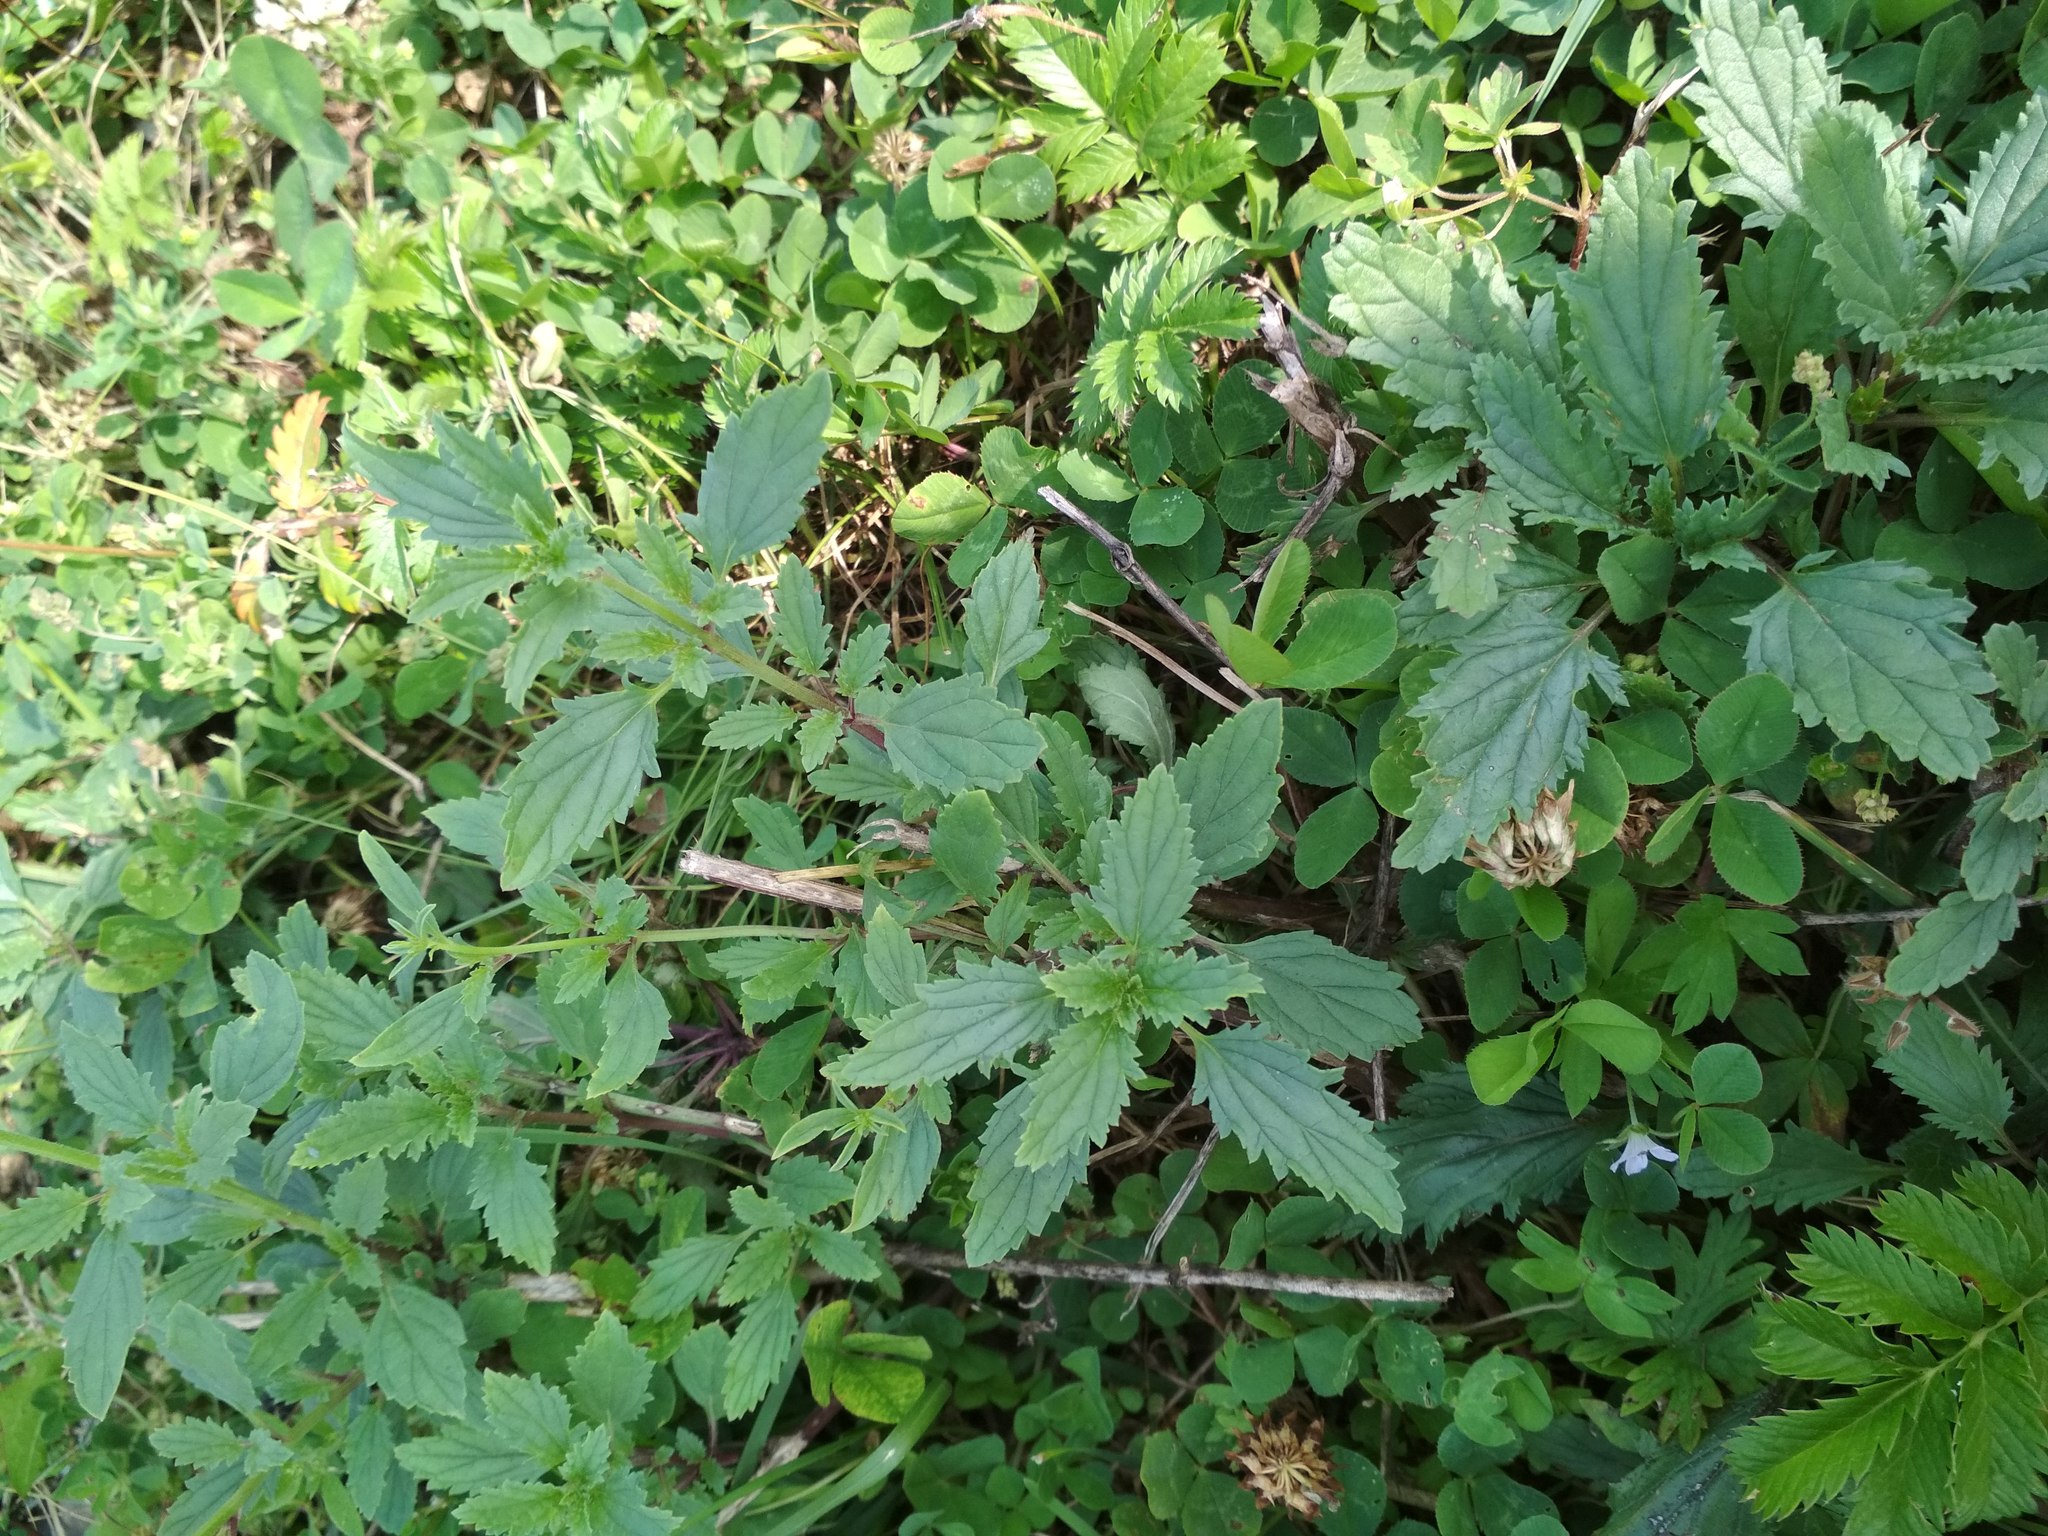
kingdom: Plantae
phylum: Tracheophyta
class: Magnoliopsida
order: Lamiales
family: Scrophulariaceae
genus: Scrophularia
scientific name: Scrophularia incisa
